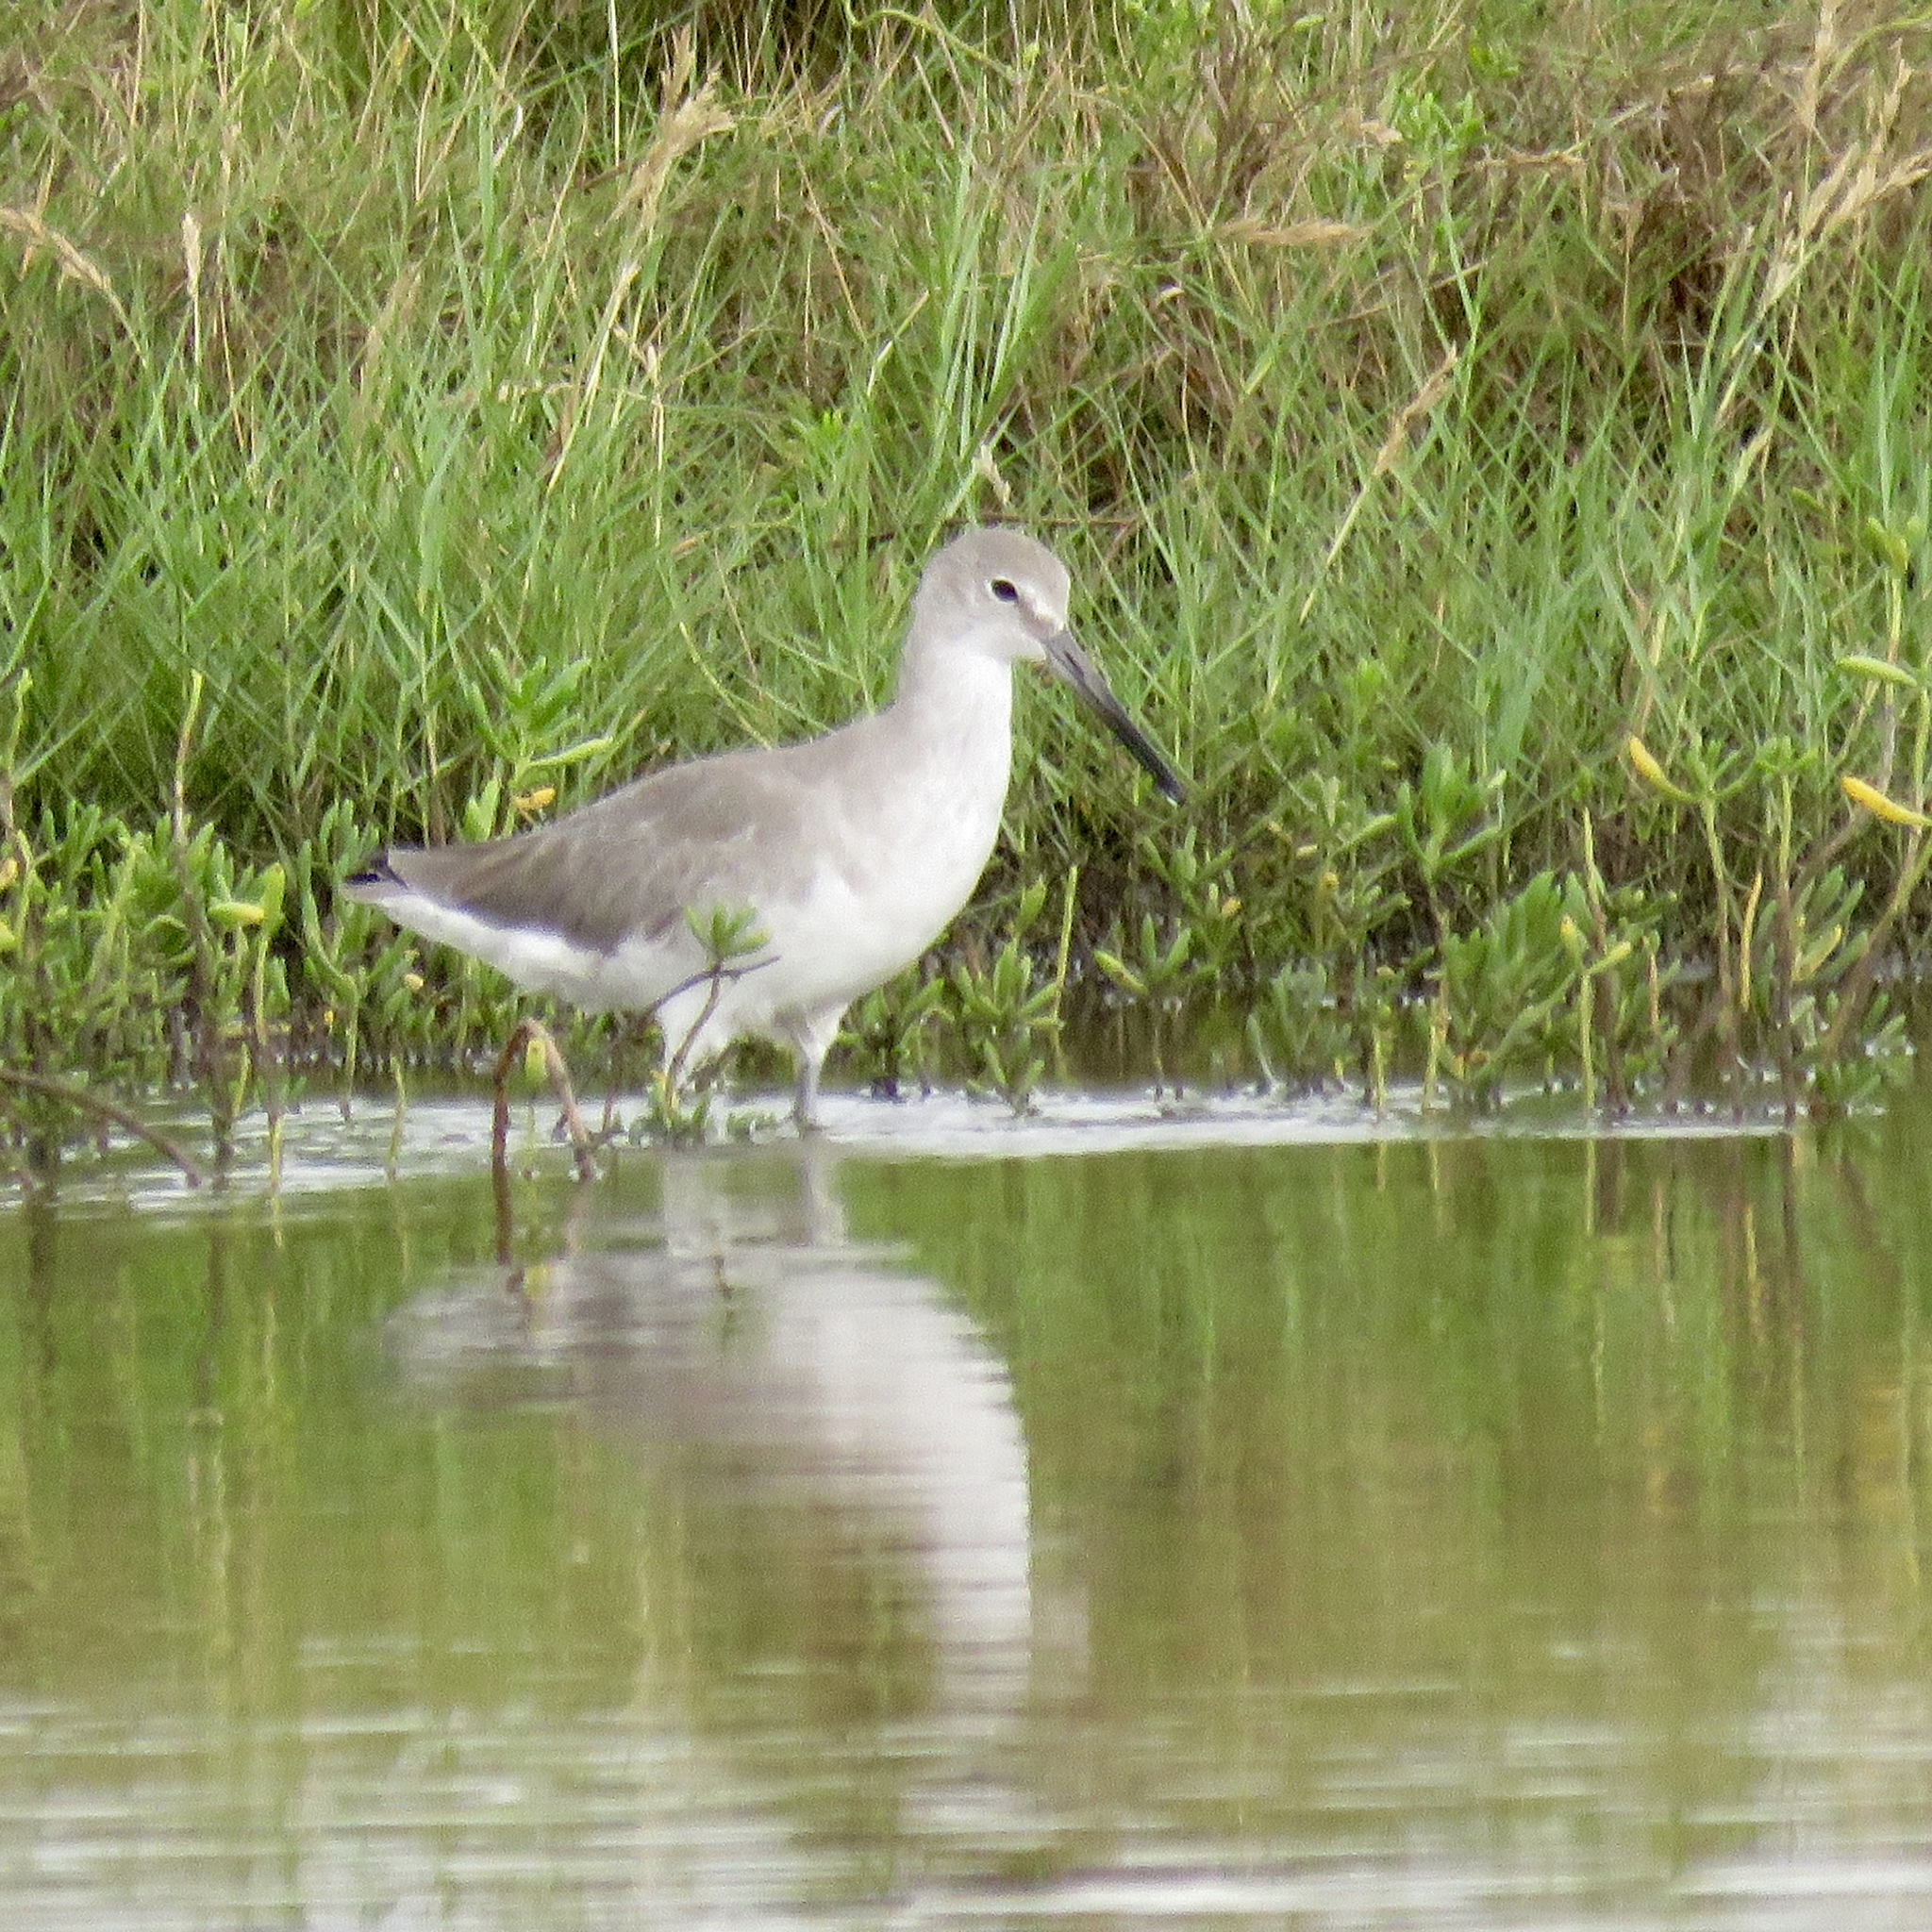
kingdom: Animalia
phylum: Chordata
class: Aves
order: Charadriiformes
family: Scolopacidae
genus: Tringa
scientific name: Tringa semipalmata
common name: Willet
